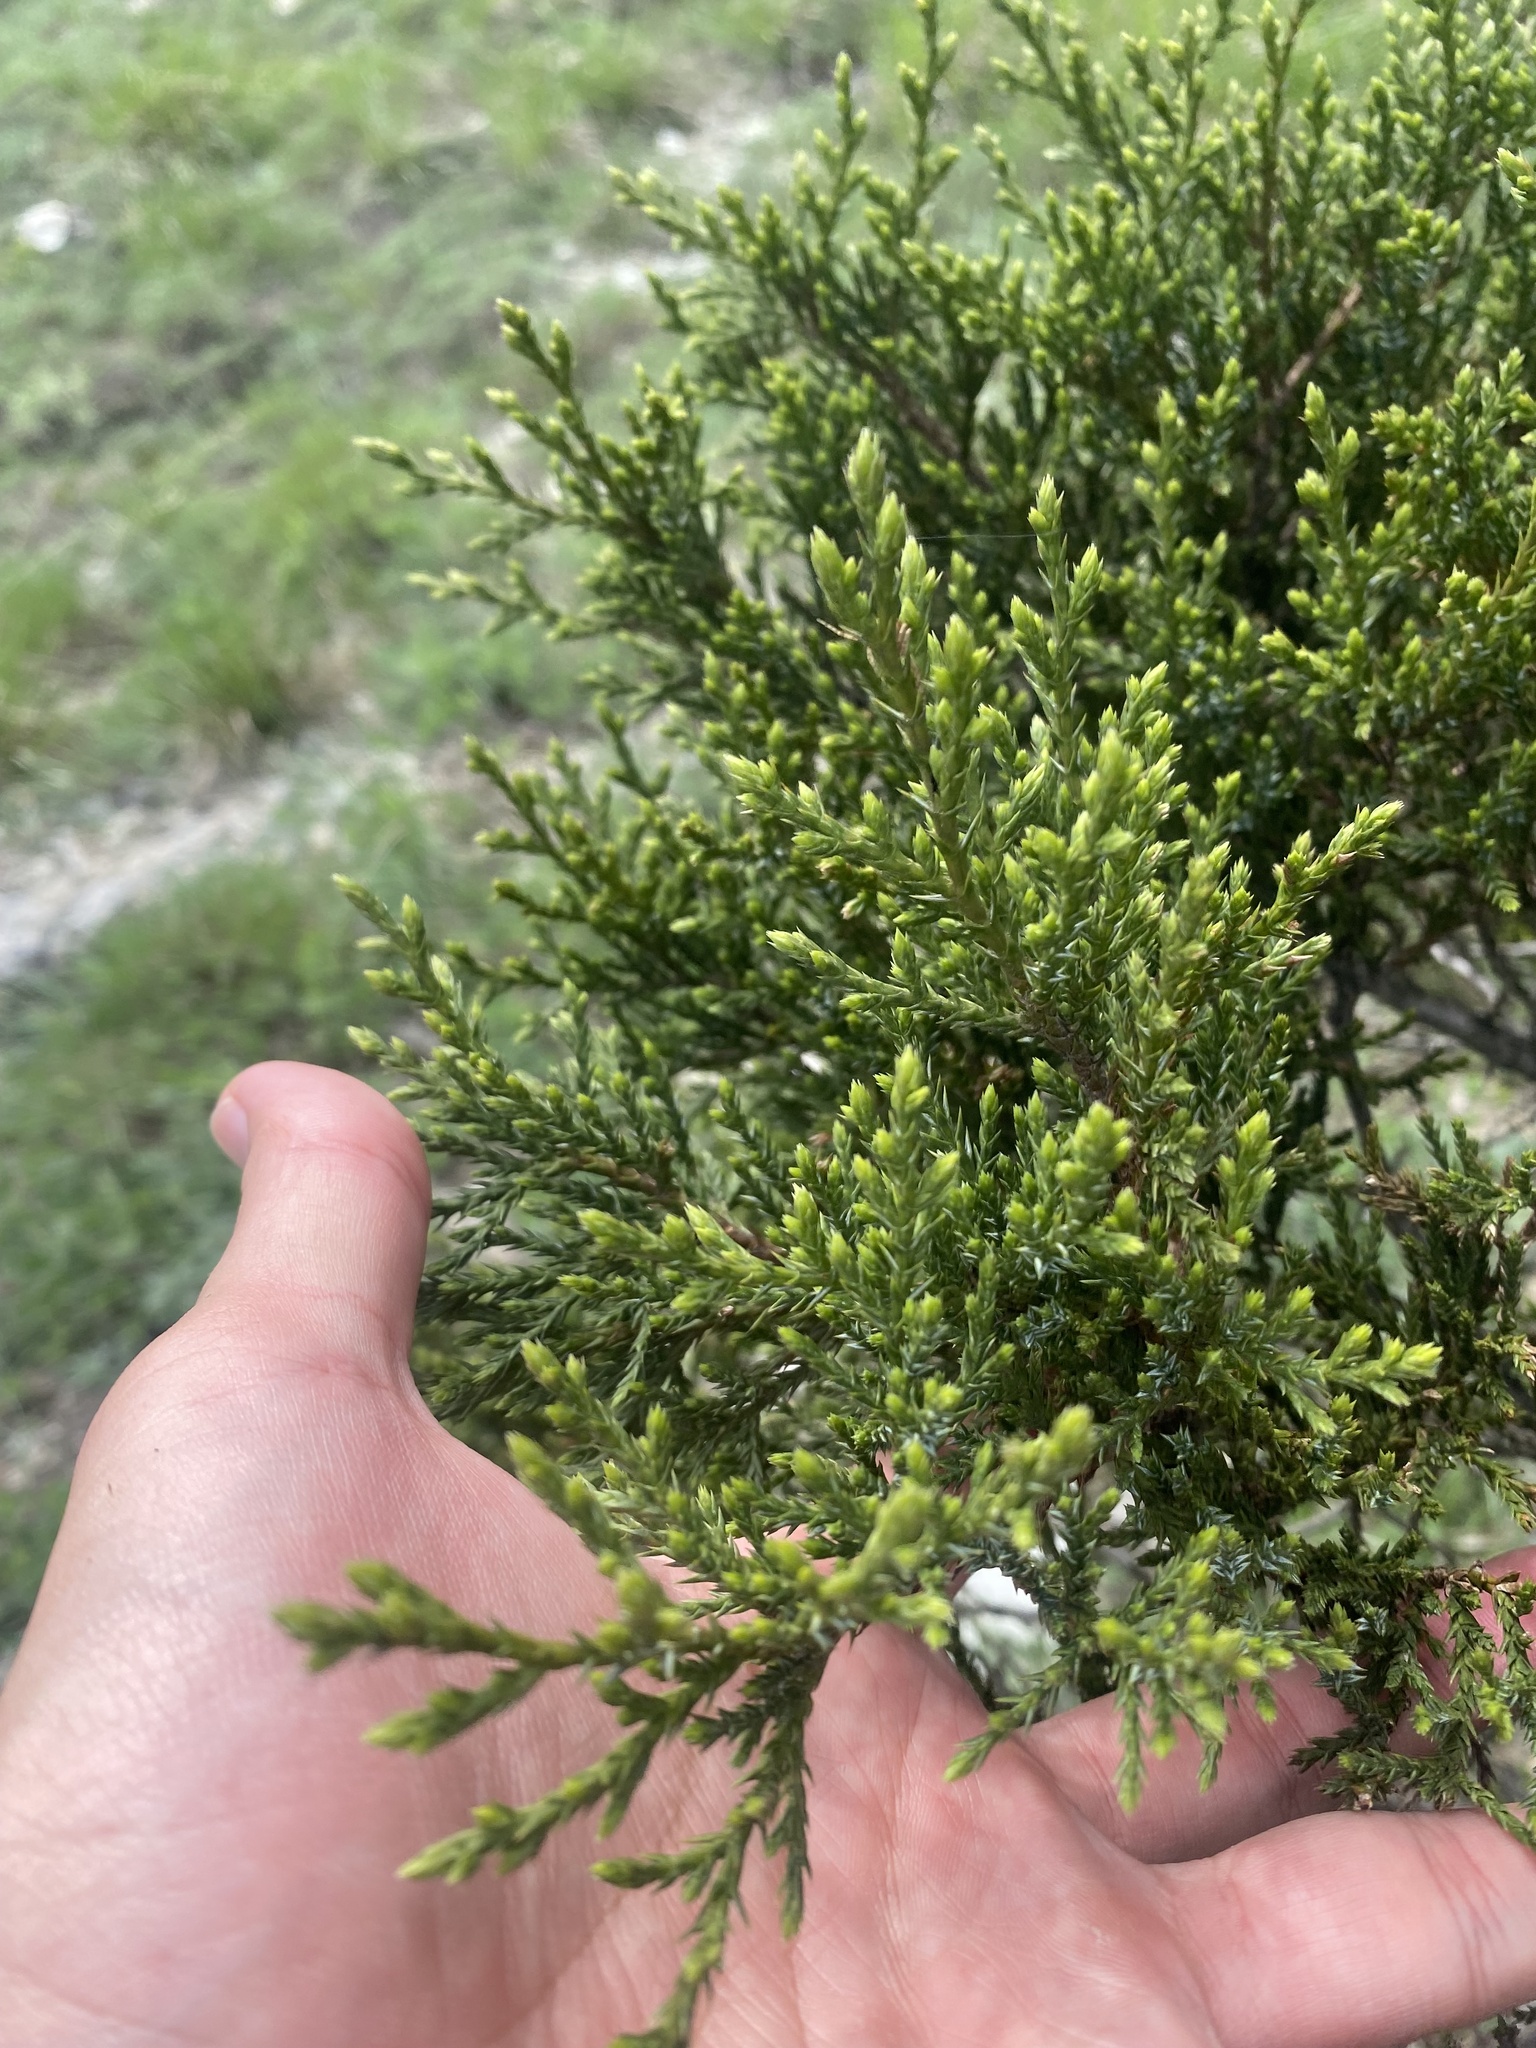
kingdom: Plantae
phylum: Tracheophyta
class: Pinopsida
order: Pinales
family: Cupressaceae
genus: Juniperus
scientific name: Juniperus foetidissima
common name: Stinking juniper
